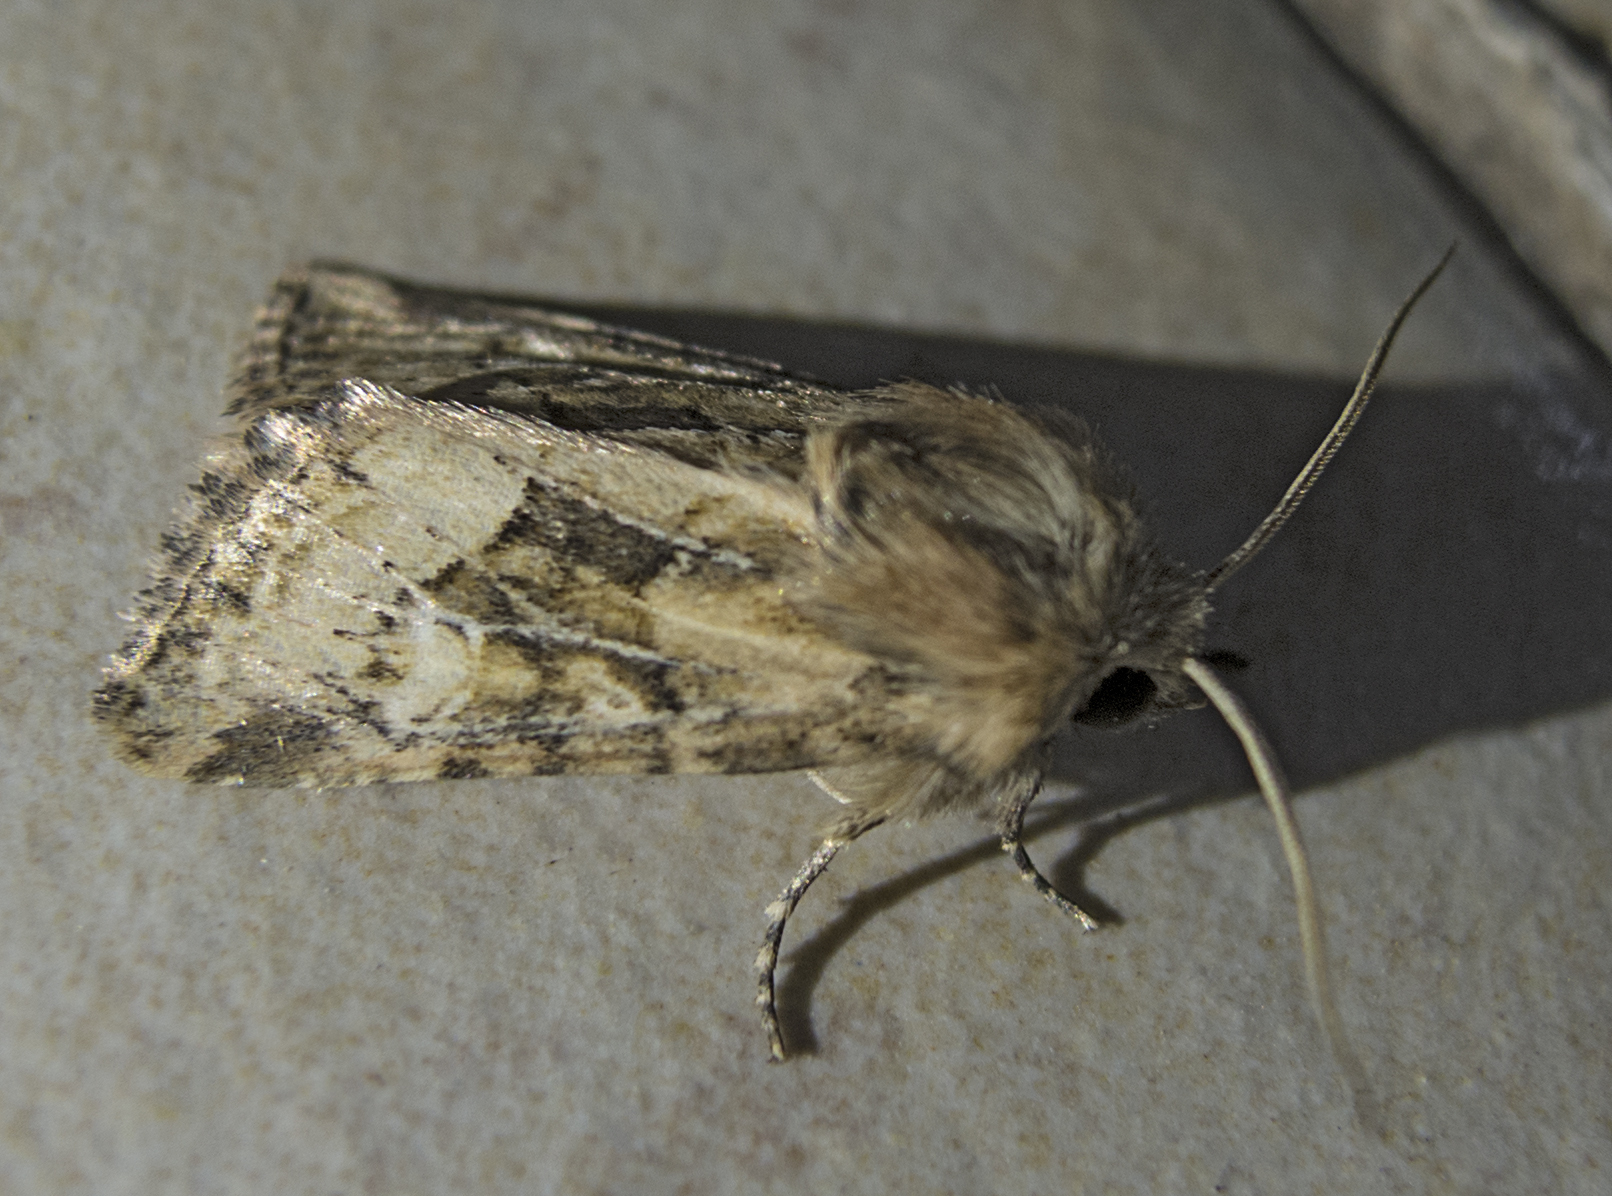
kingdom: Animalia
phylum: Arthropoda
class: Insecta
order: Lepidoptera
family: Noctuidae
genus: Luperina
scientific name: Luperina dumerilii
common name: Dumeril's rustic
